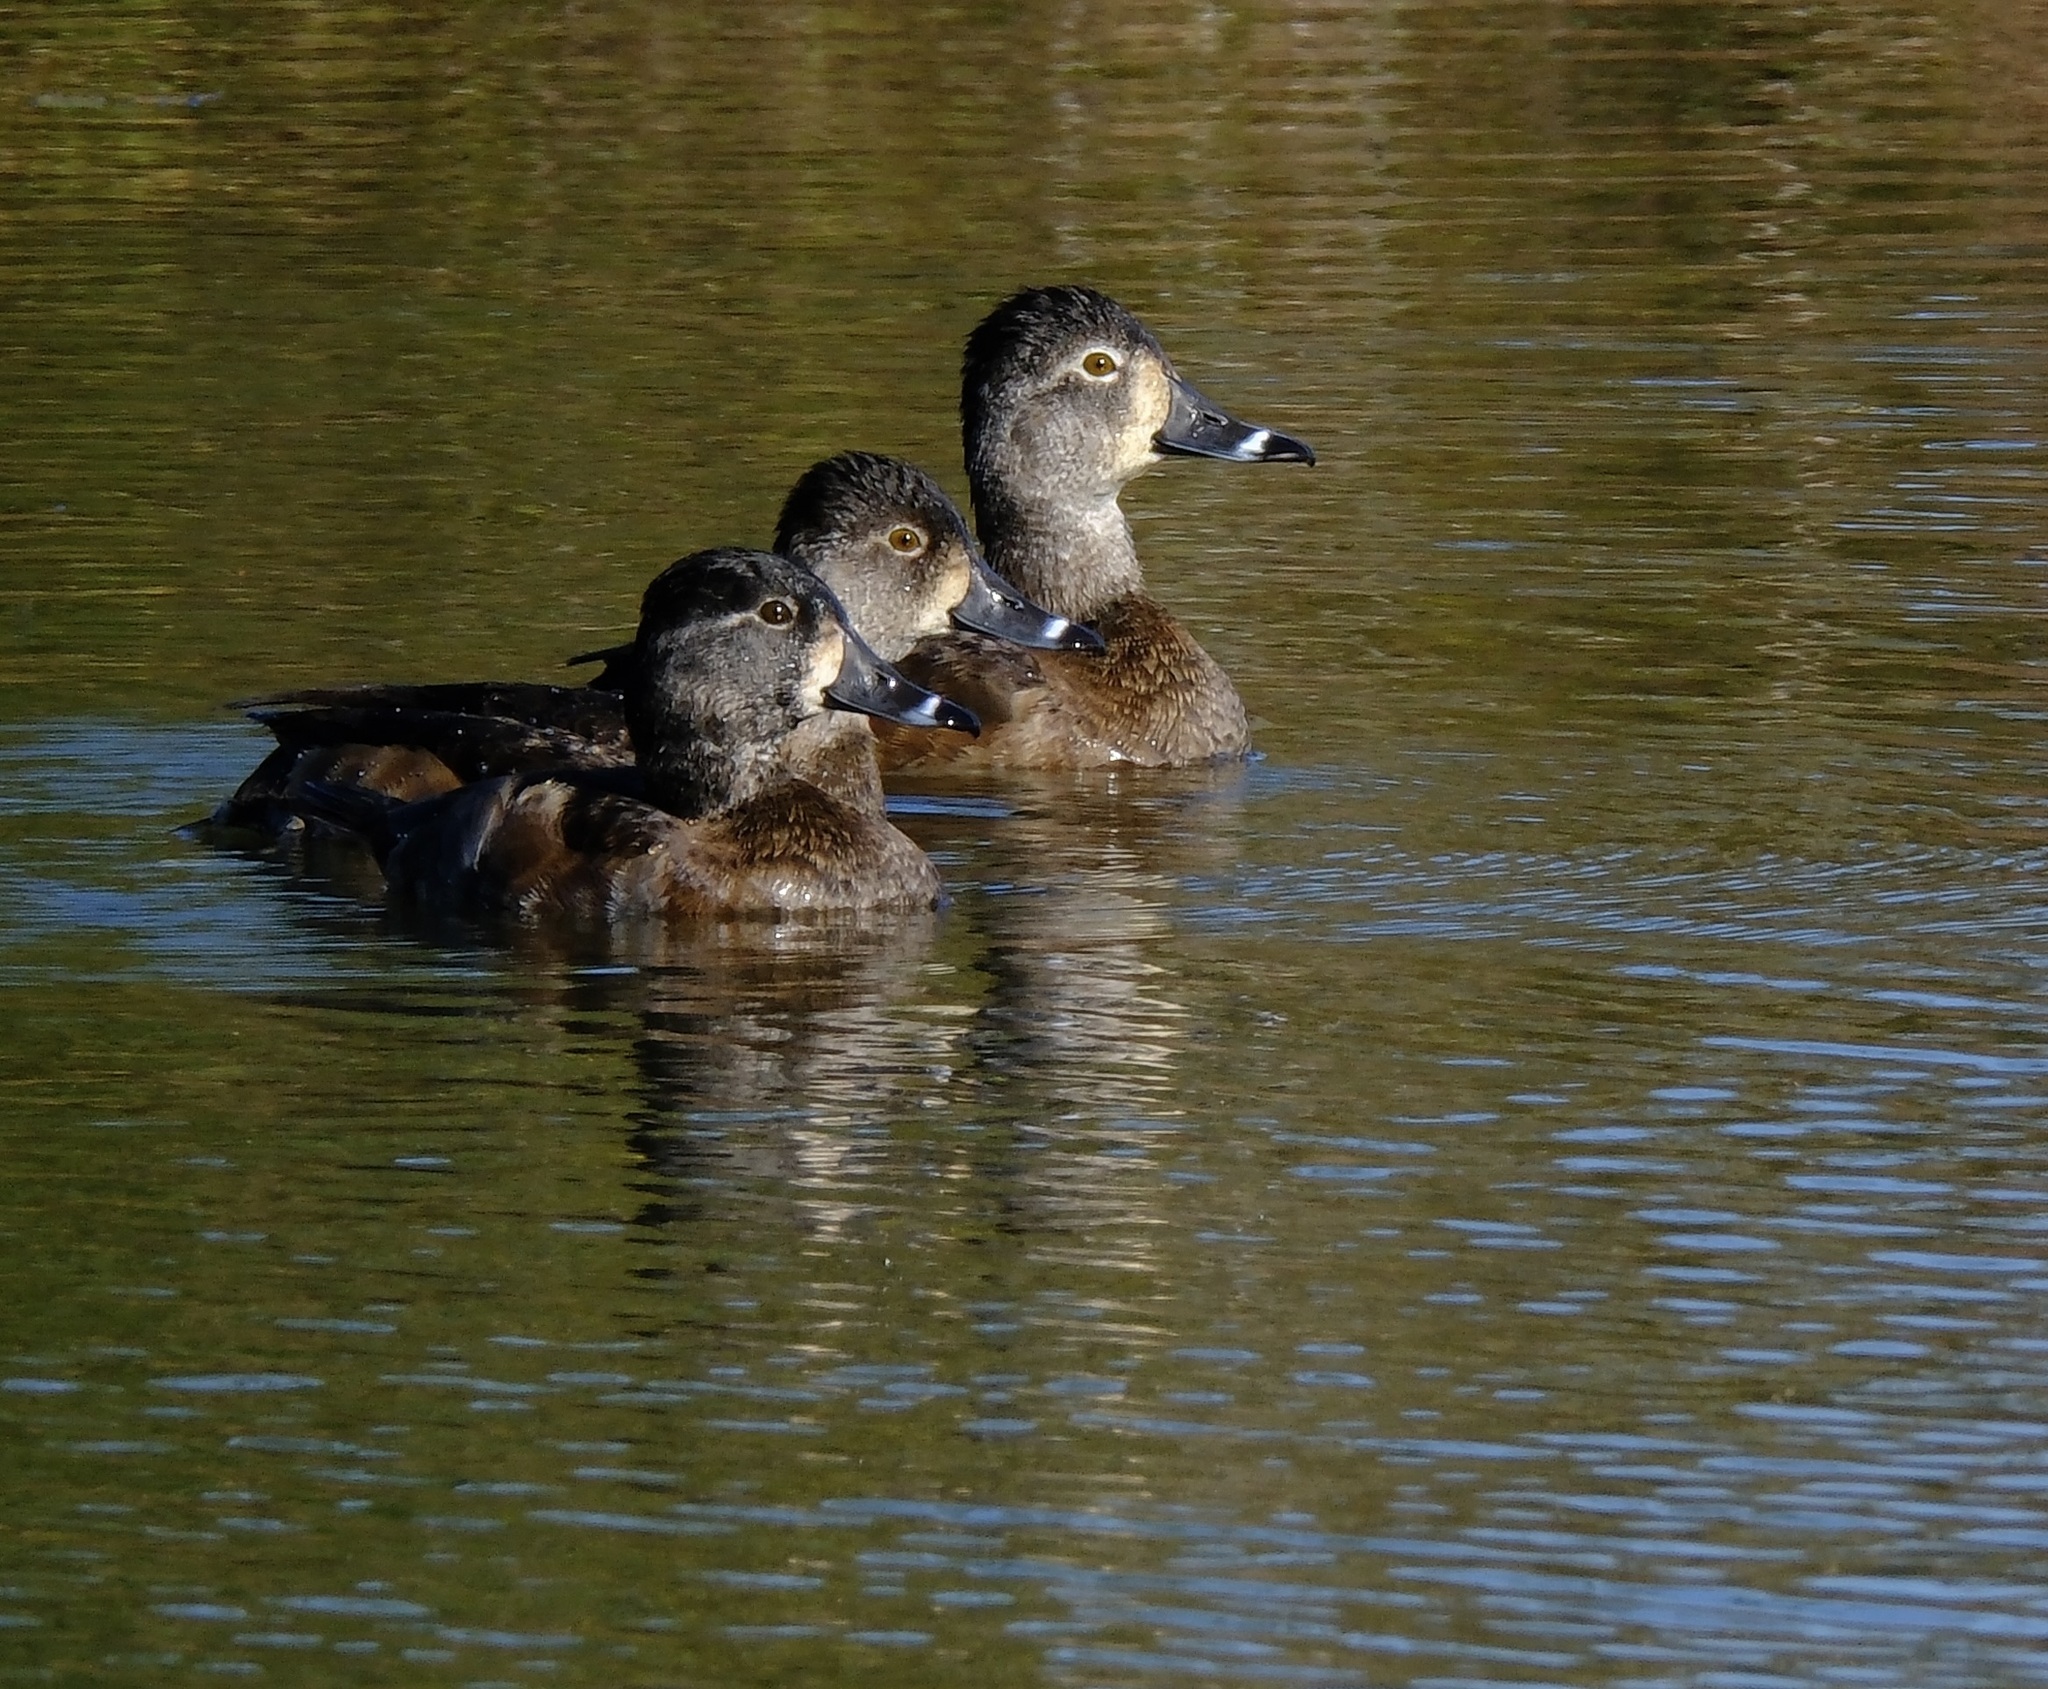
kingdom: Animalia
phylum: Chordata
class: Aves
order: Anseriformes
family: Anatidae
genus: Aythya
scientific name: Aythya collaris
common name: Ring-necked duck
